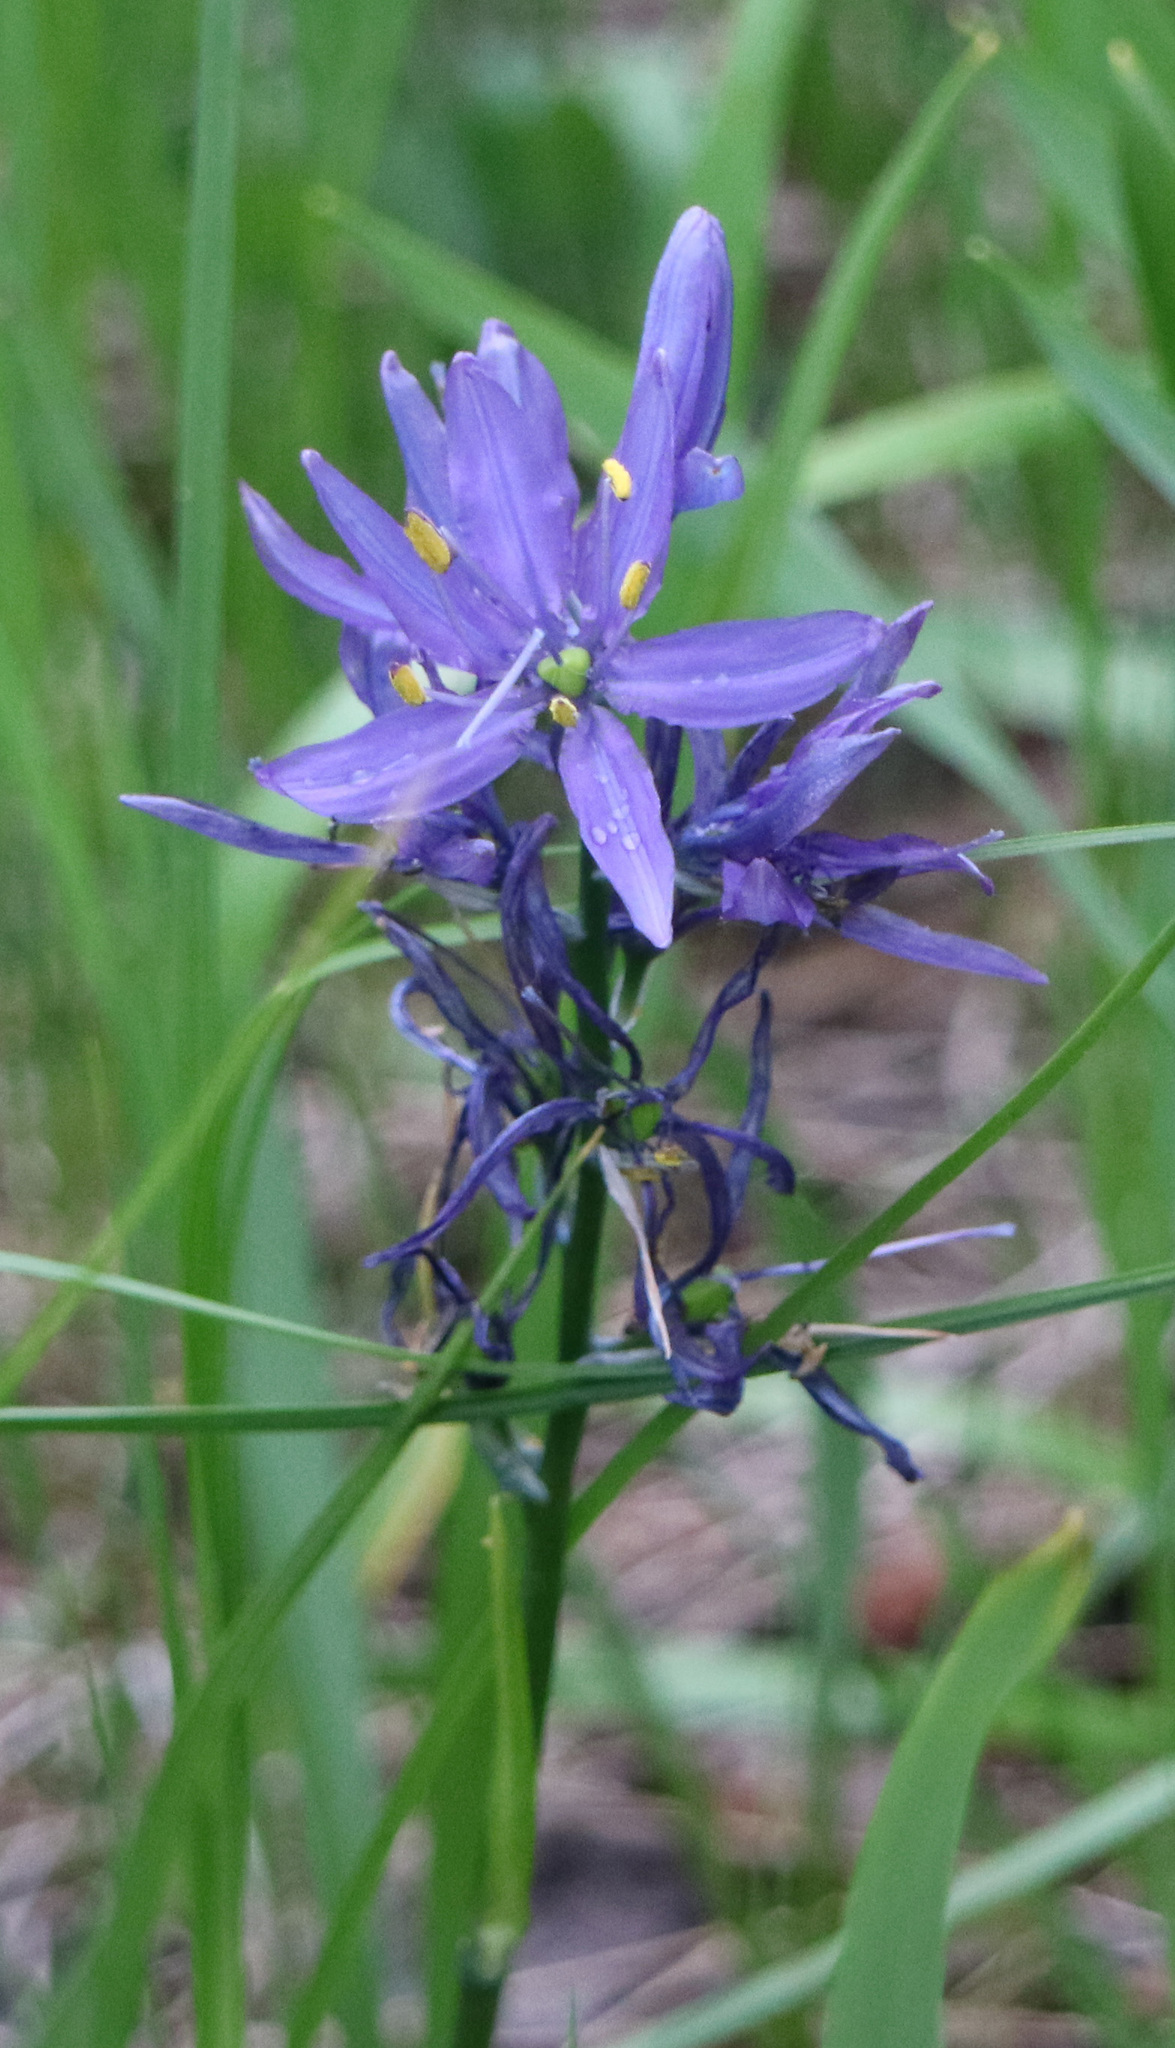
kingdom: Plantae
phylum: Tracheophyta
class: Liliopsida
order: Asparagales
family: Asparagaceae
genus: Camassia
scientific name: Camassia quamash
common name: Common camas
